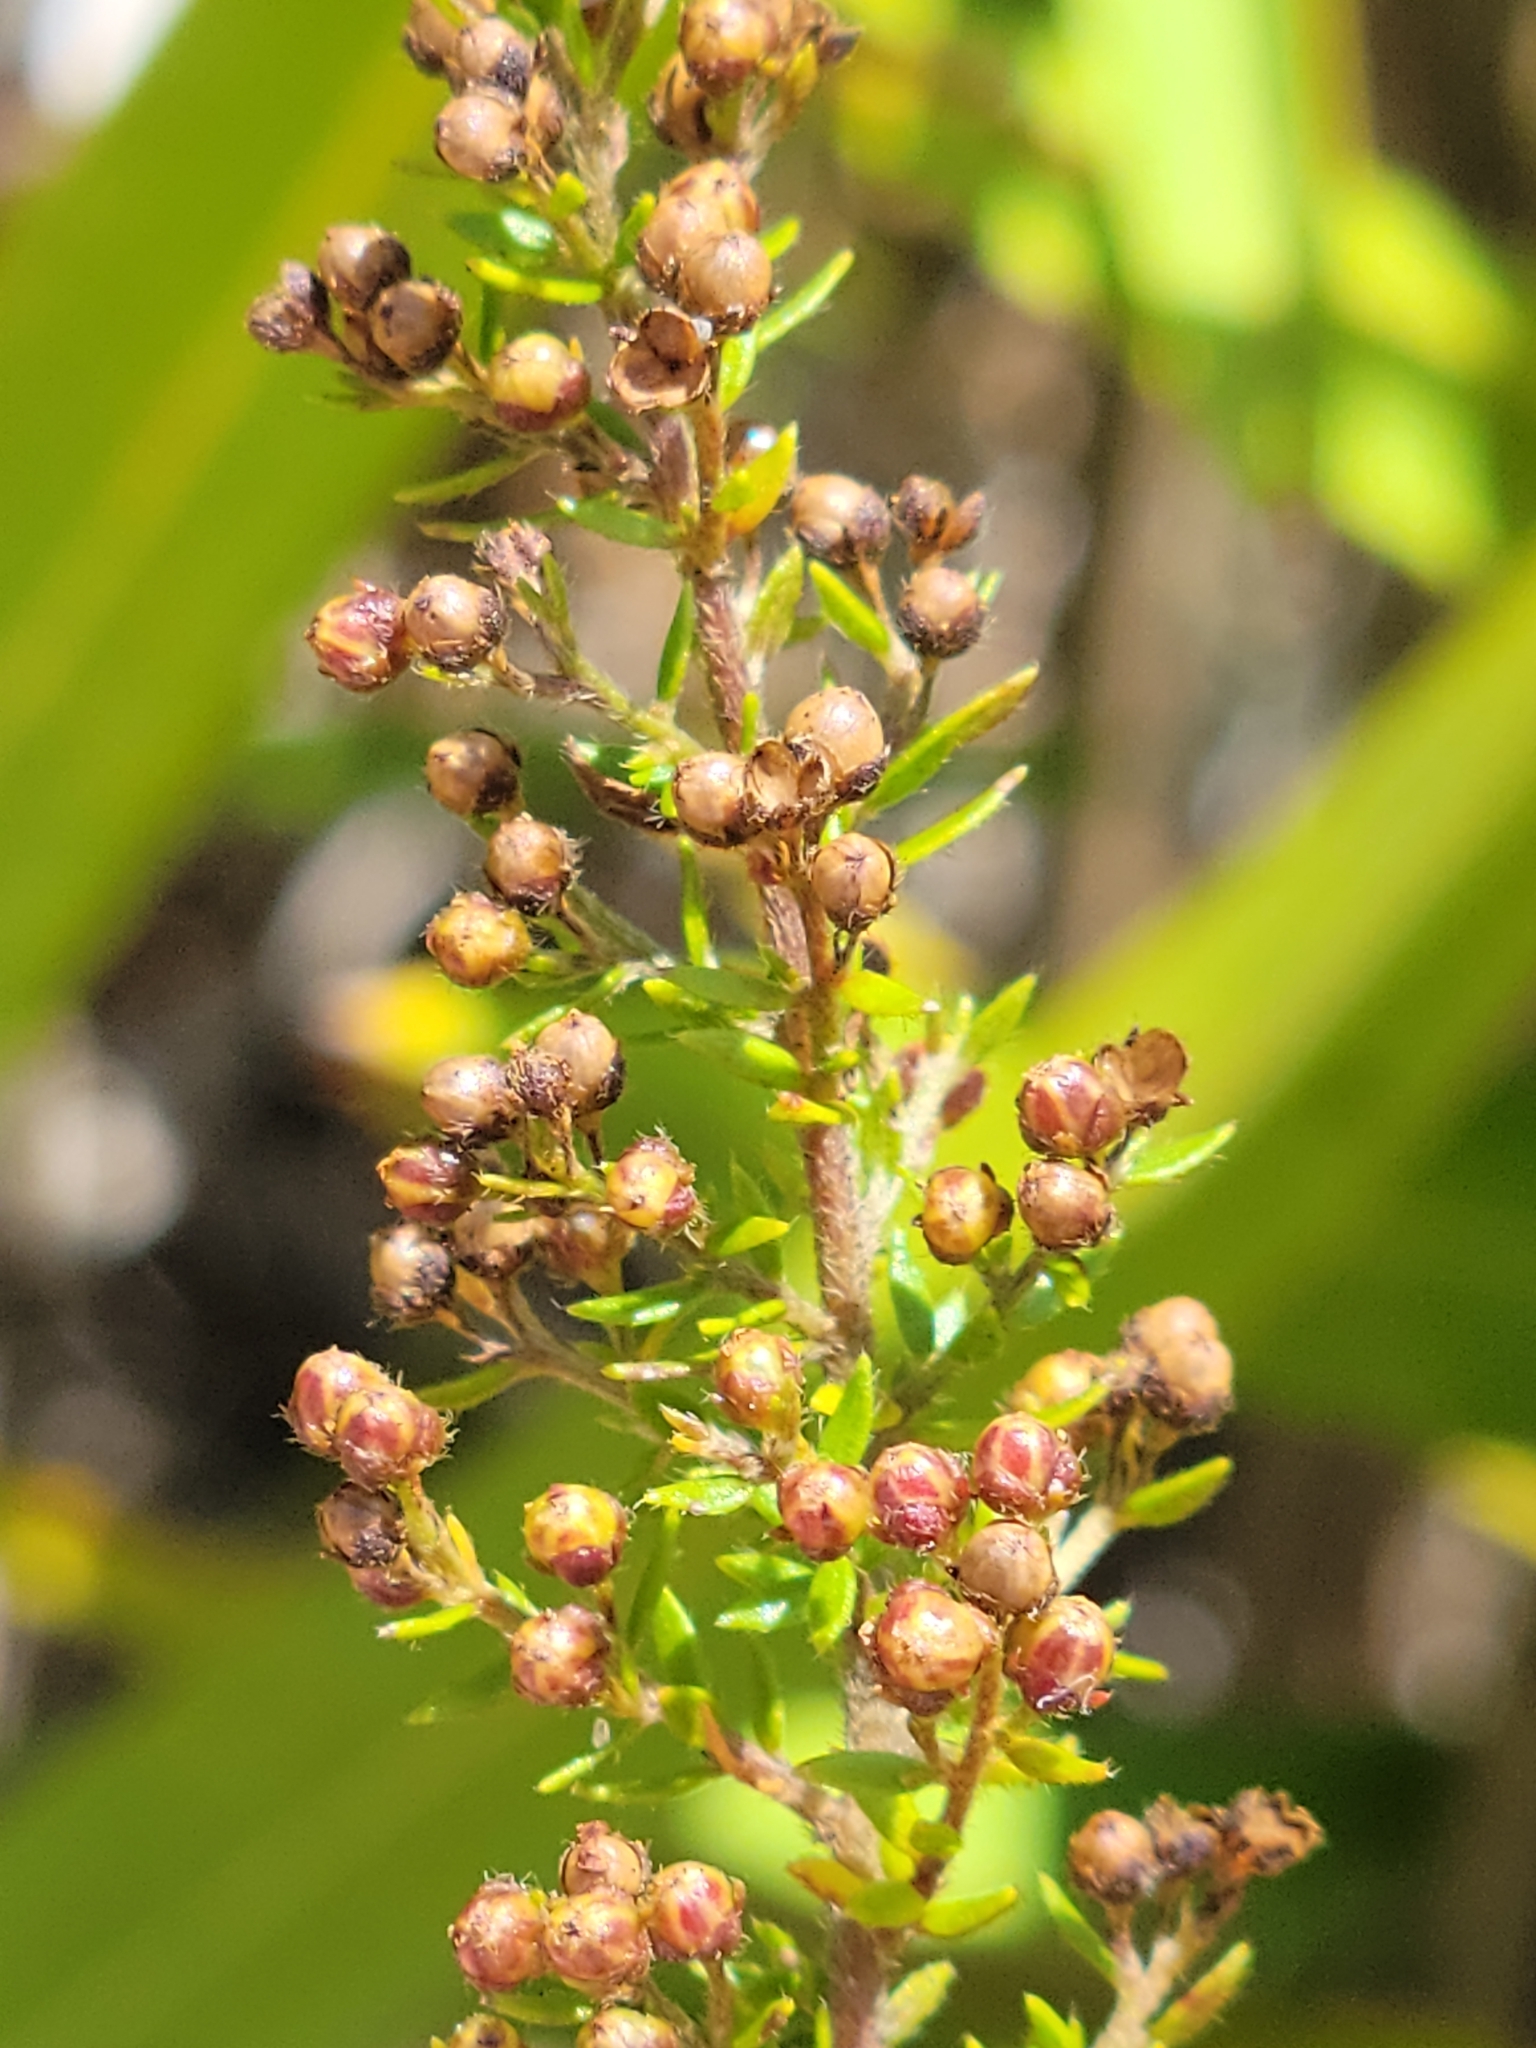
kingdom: Plantae
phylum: Tracheophyta
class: Magnoliopsida
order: Malvales
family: Cistaceae
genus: Lechea
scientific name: Lechea divaricata
